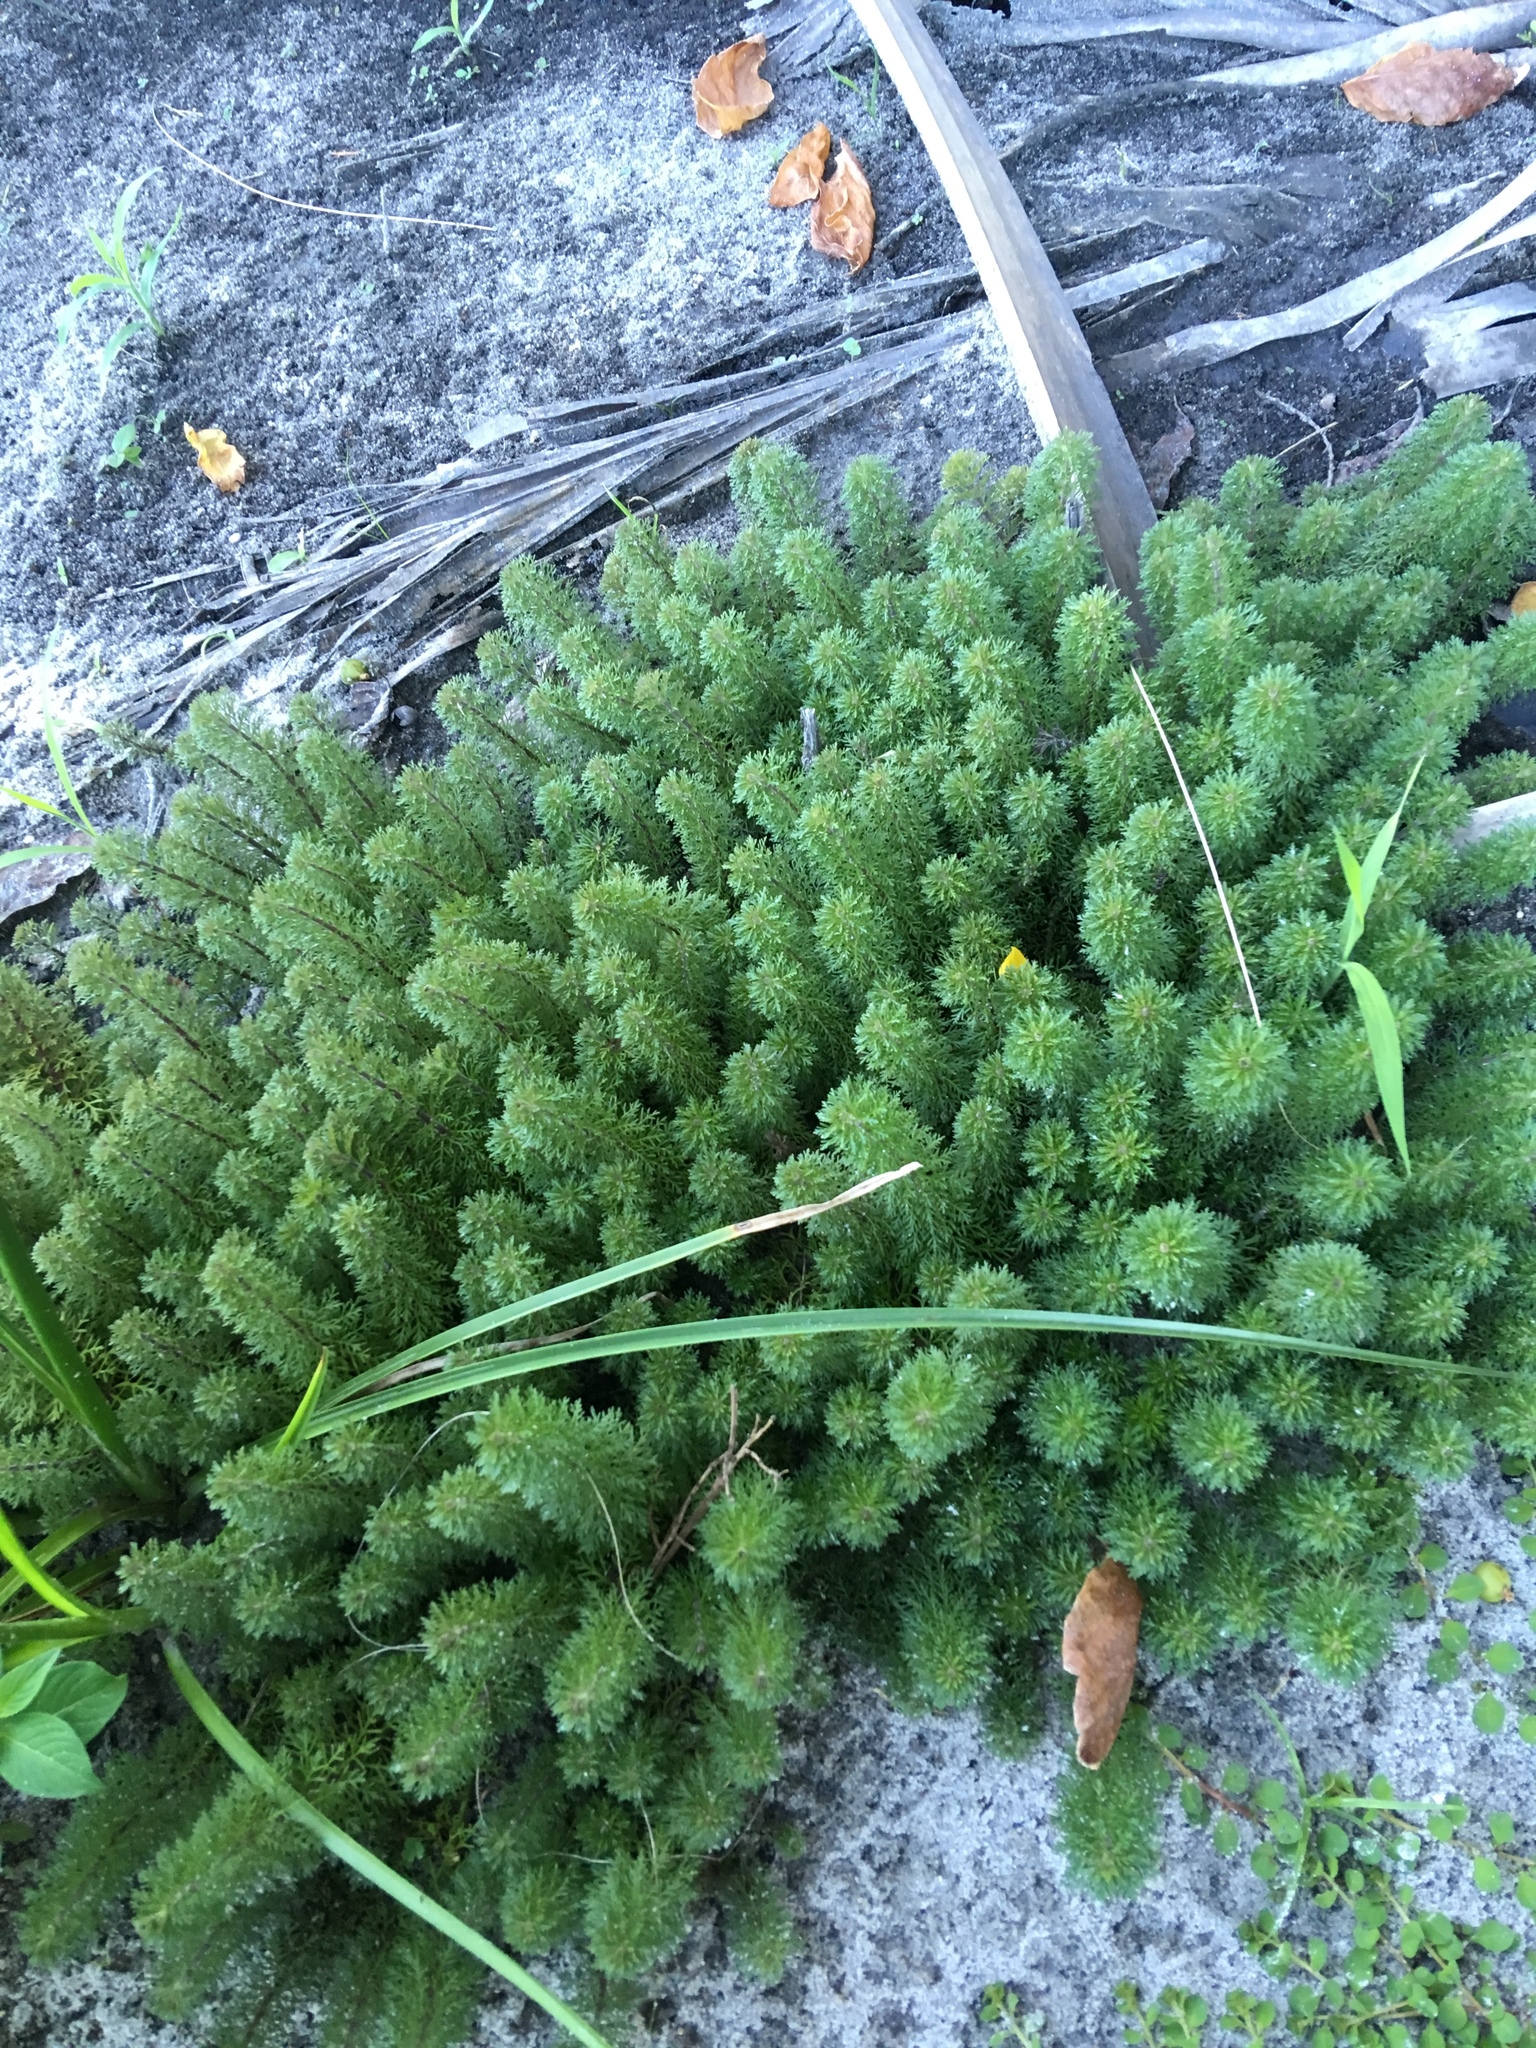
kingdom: Plantae
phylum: Tracheophyta
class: Magnoliopsida
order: Lamiales
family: Plantaginaceae
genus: Limnophila
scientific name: Limnophila sessiliflora
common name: Asian marshweed
